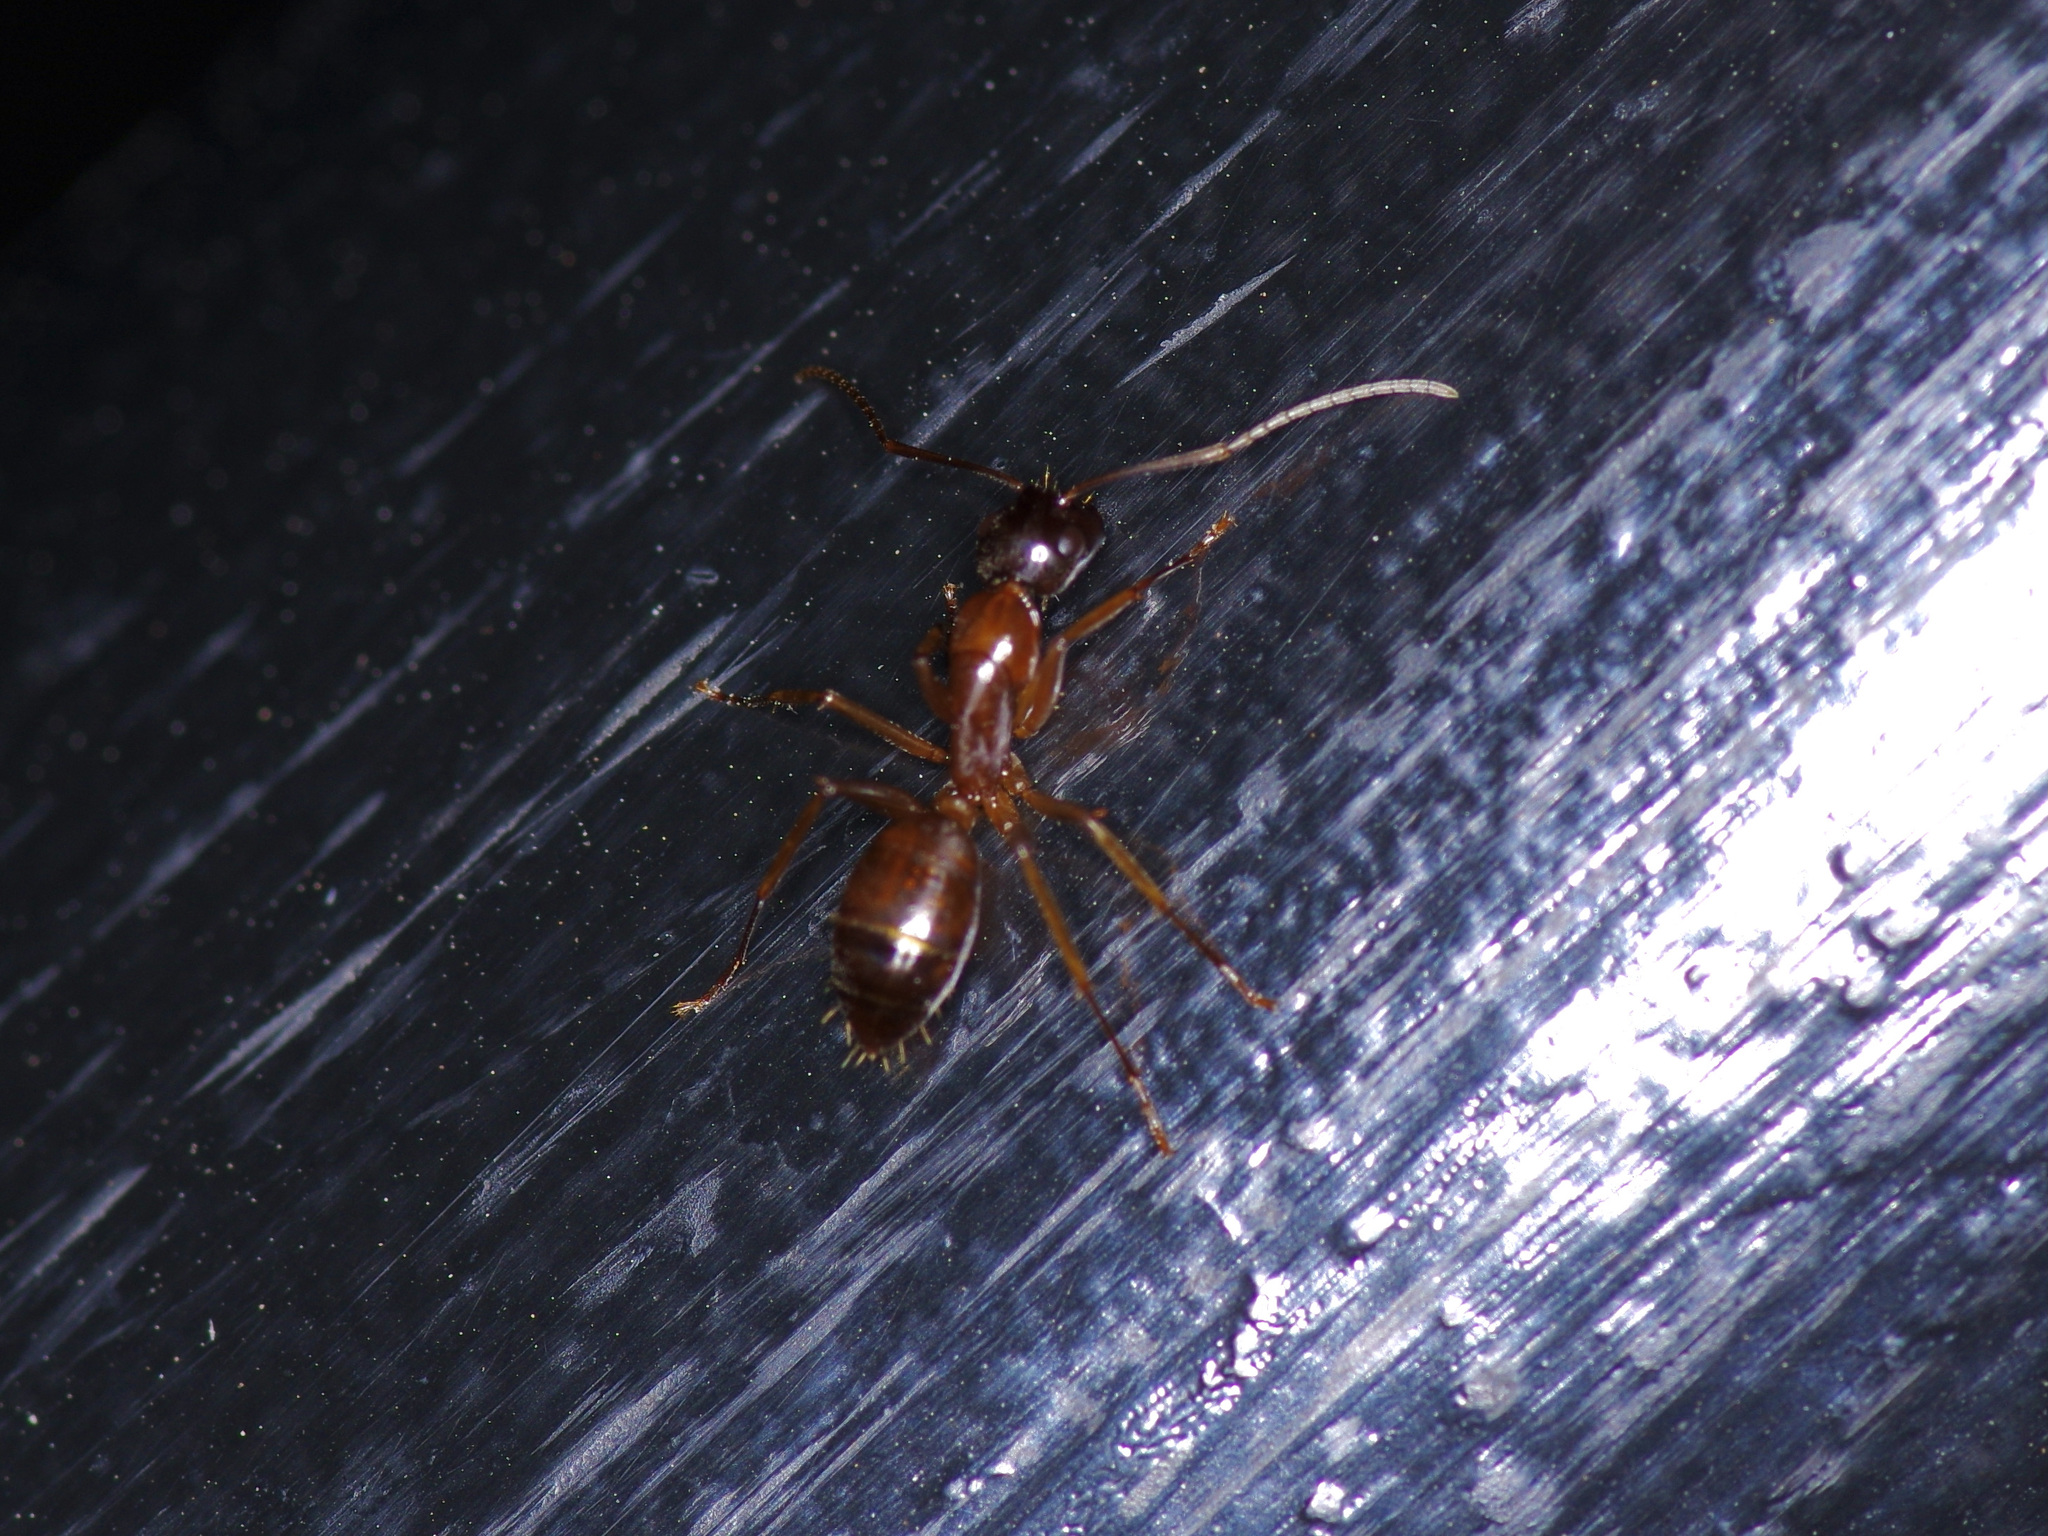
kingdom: Animalia
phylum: Arthropoda
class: Insecta
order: Hymenoptera
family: Formicidae
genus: Camponotus
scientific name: Camponotus sansabeanus
